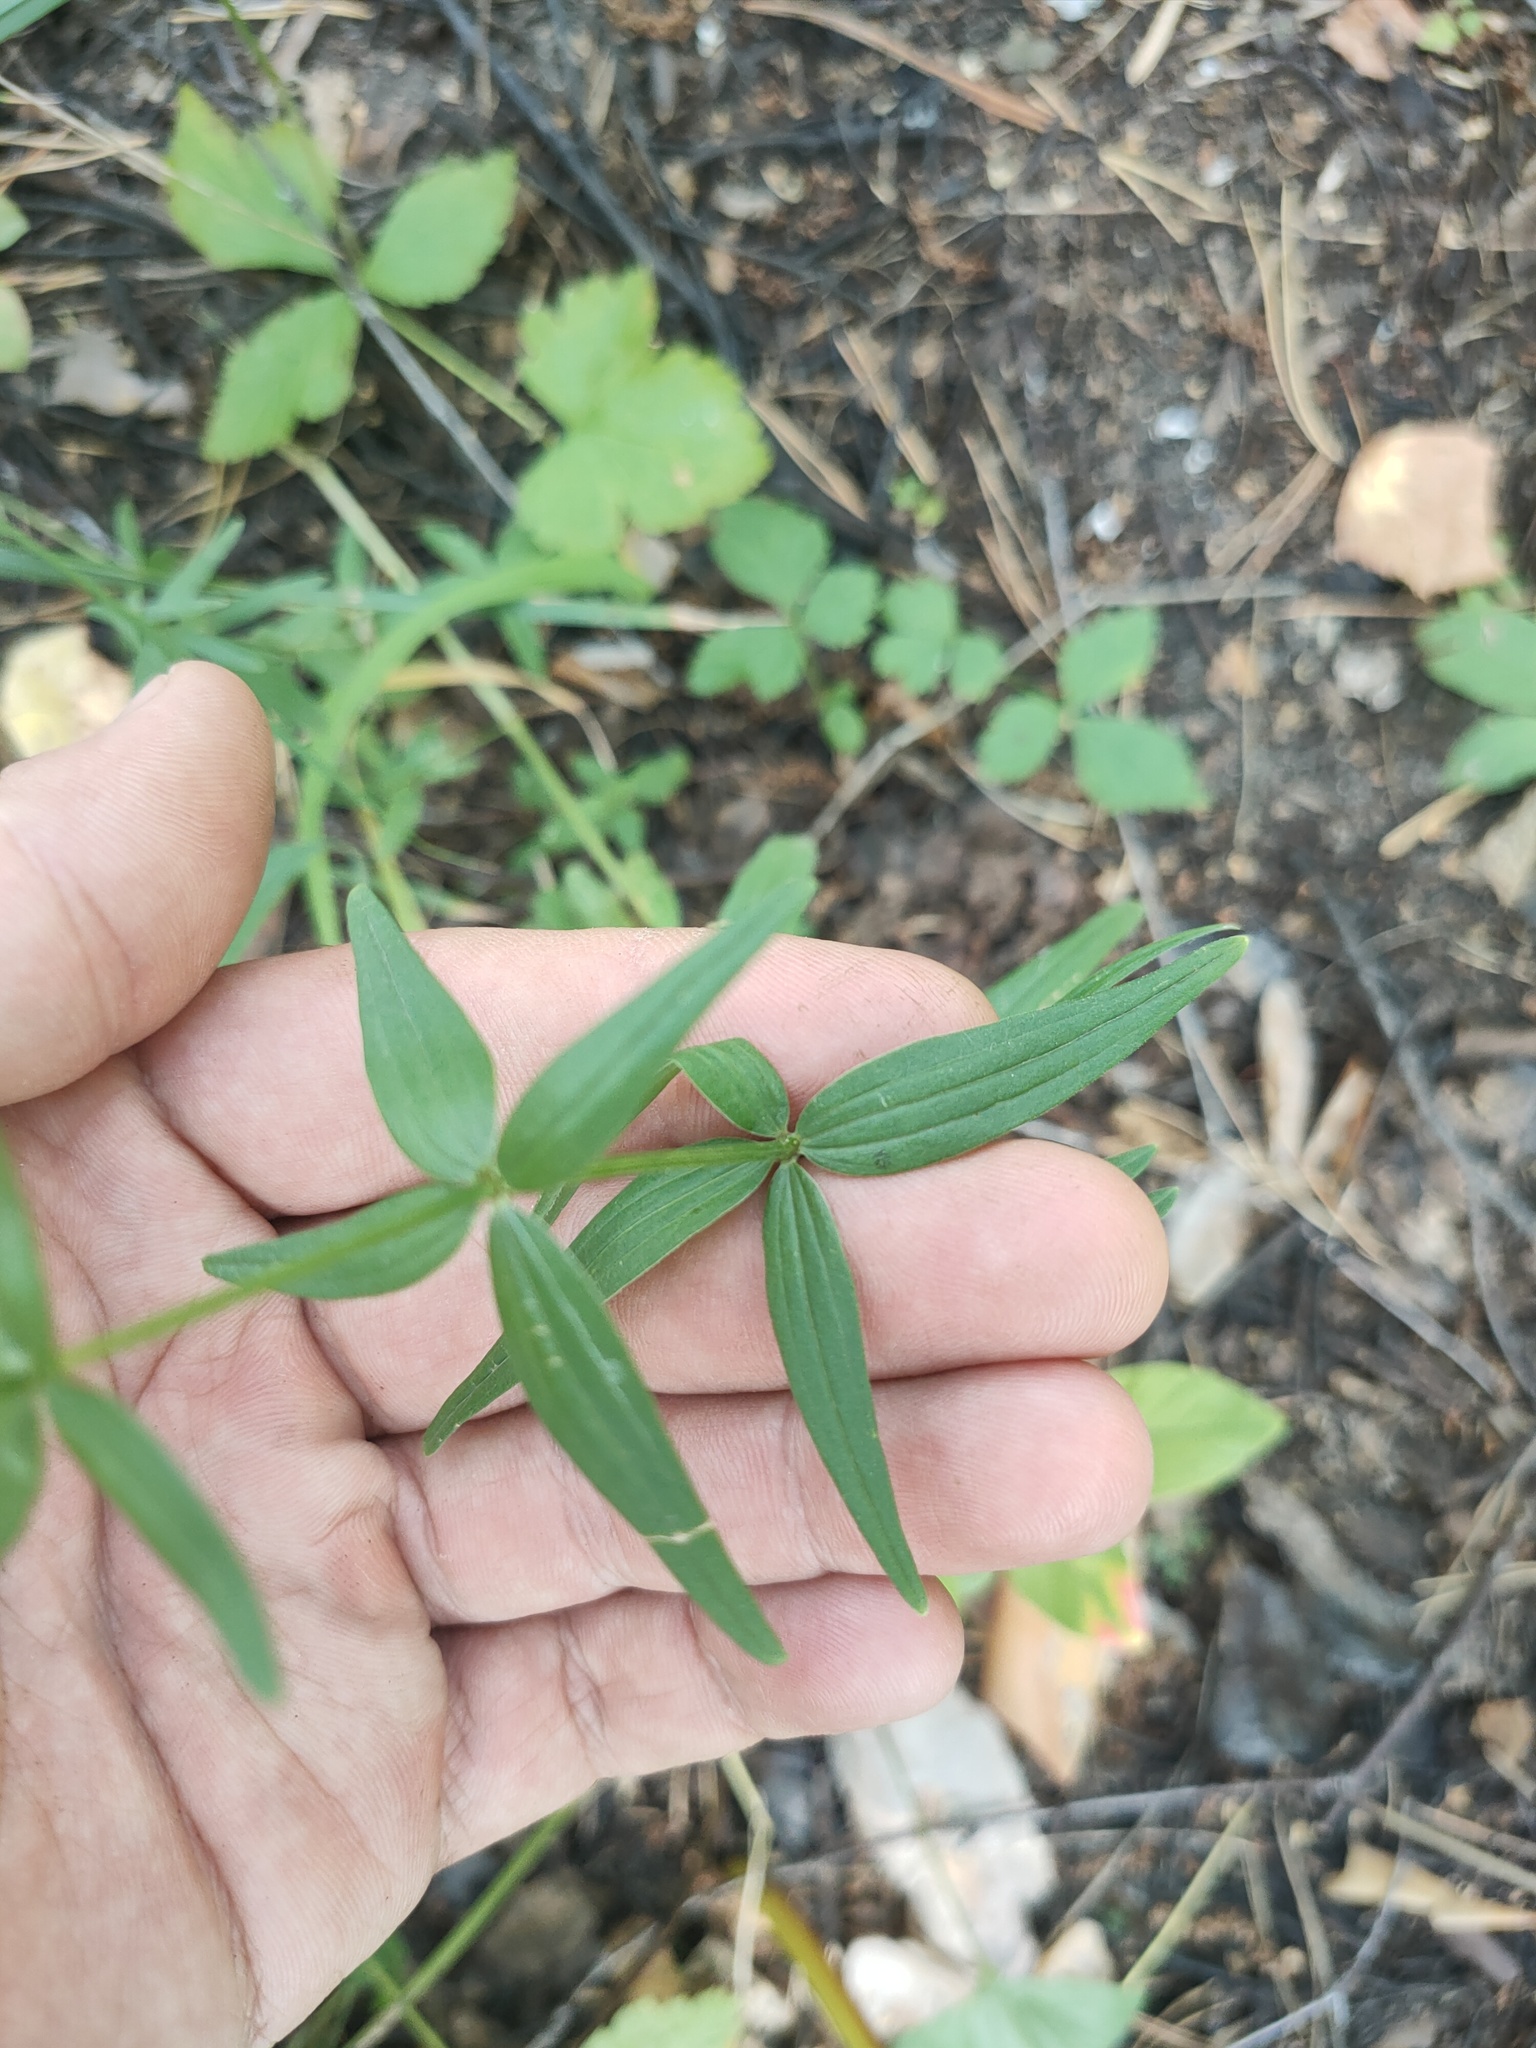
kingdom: Plantae
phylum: Tracheophyta
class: Magnoliopsida
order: Gentianales
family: Rubiaceae
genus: Galium
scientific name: Galium boreale
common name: Northern bedstraw
